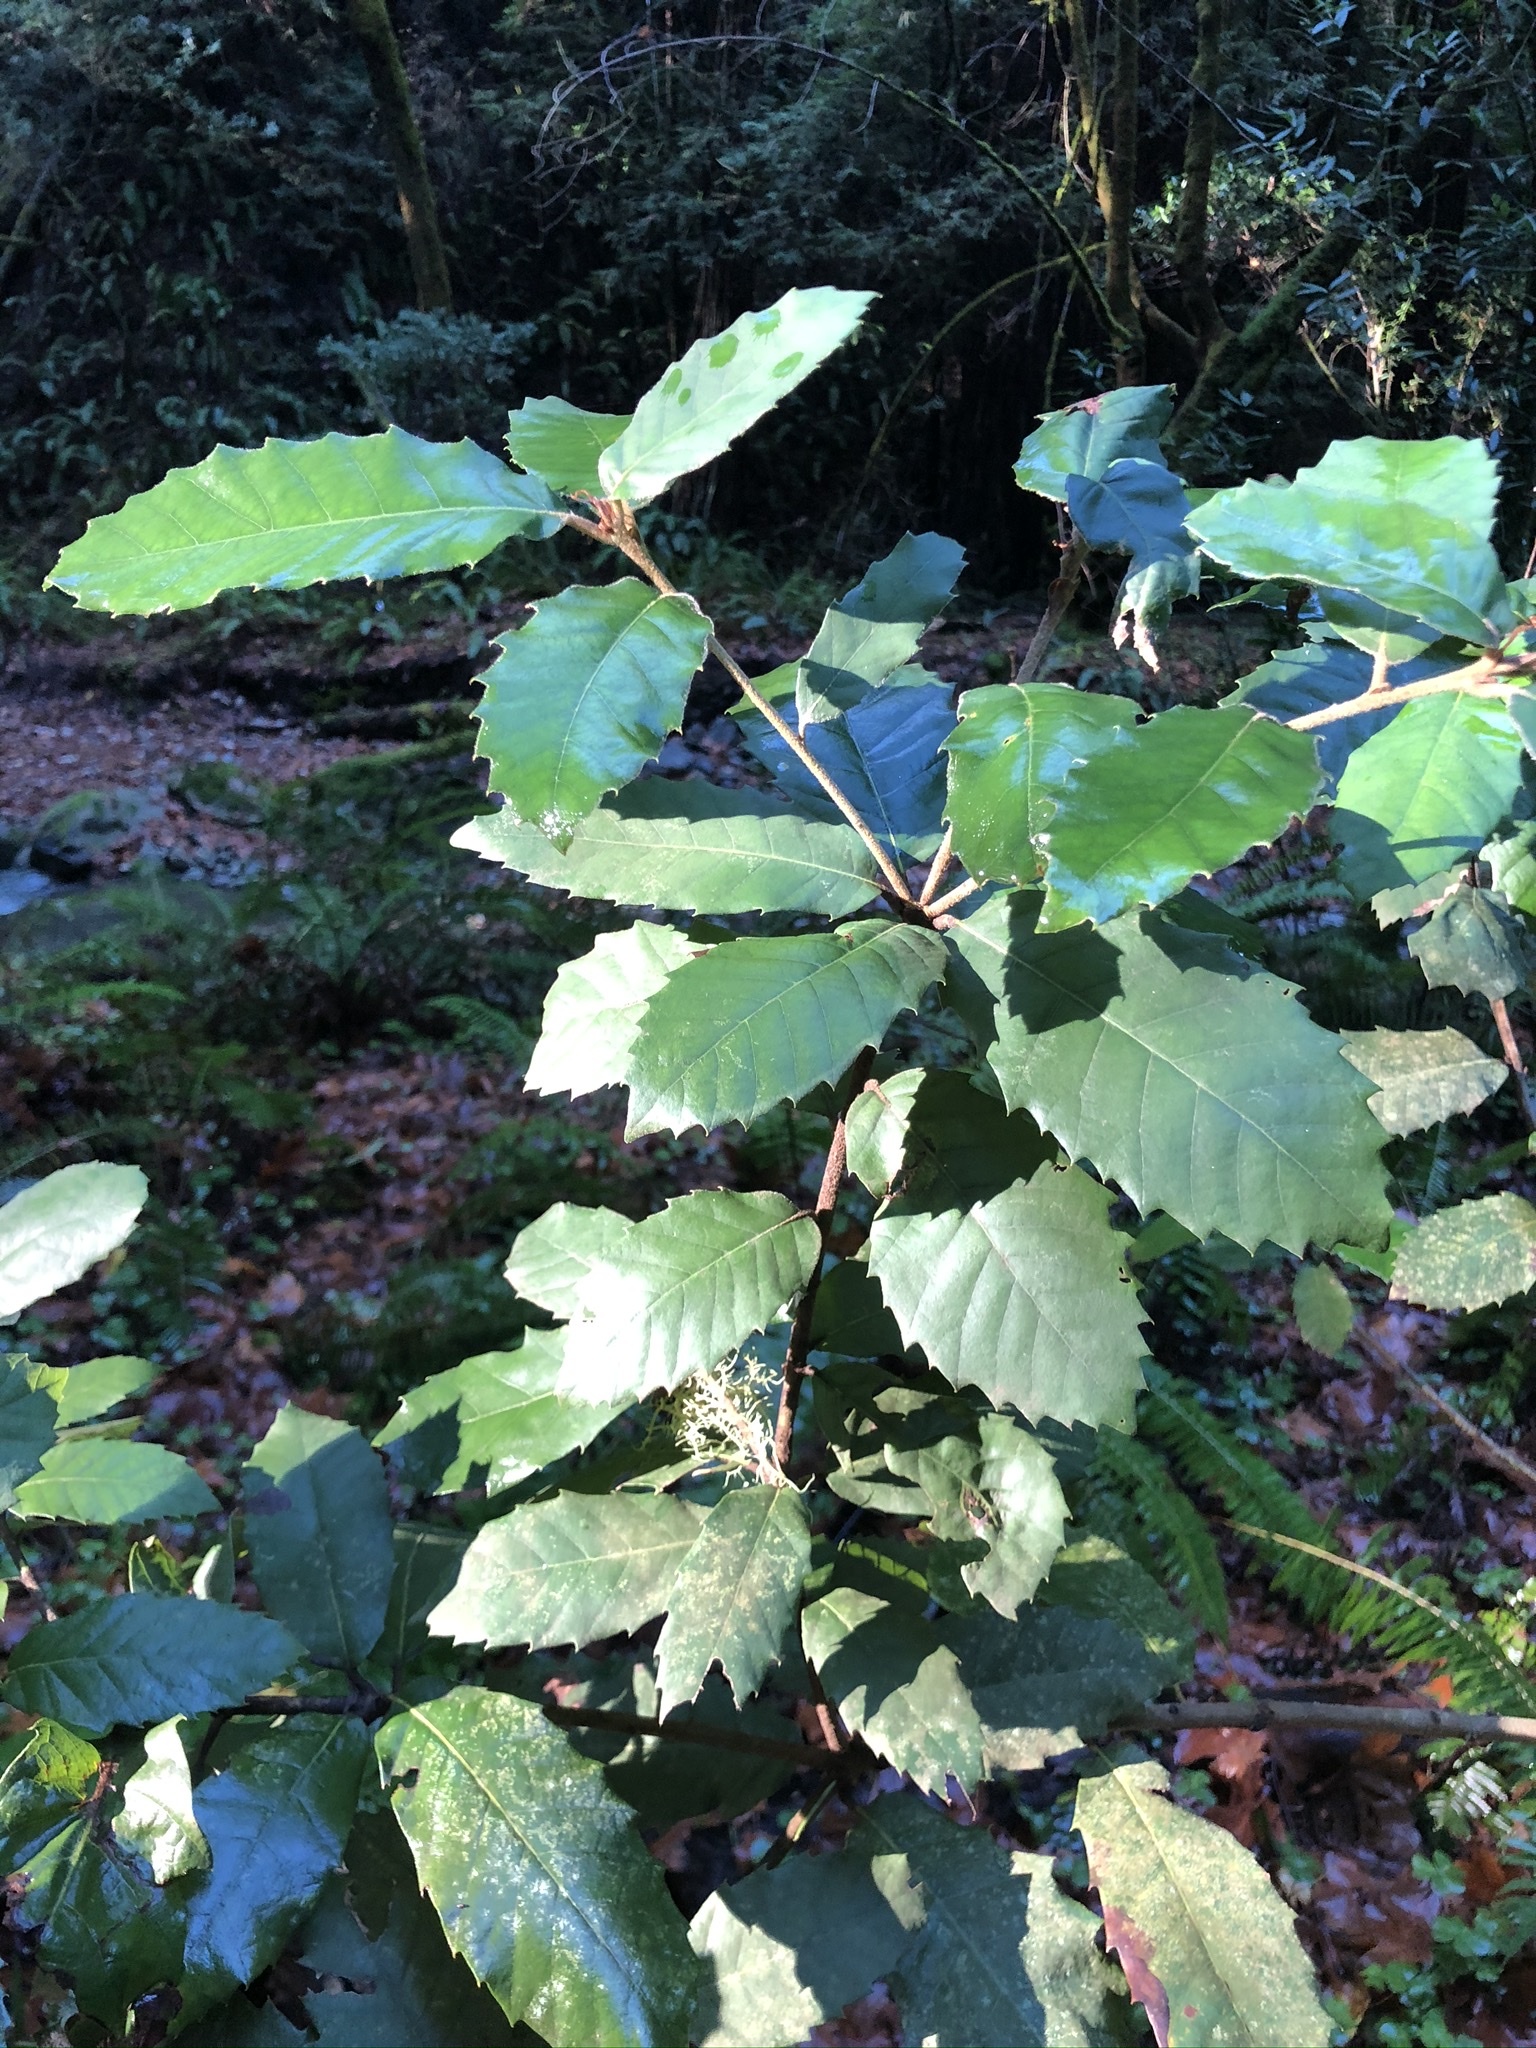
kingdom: Plantae
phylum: Tracheophyta
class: Magnoliopsida
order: Fagales
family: Fagaceae
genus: Notholithocarpus
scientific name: Notholithocarpus densiflorus
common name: Tan bark oak
